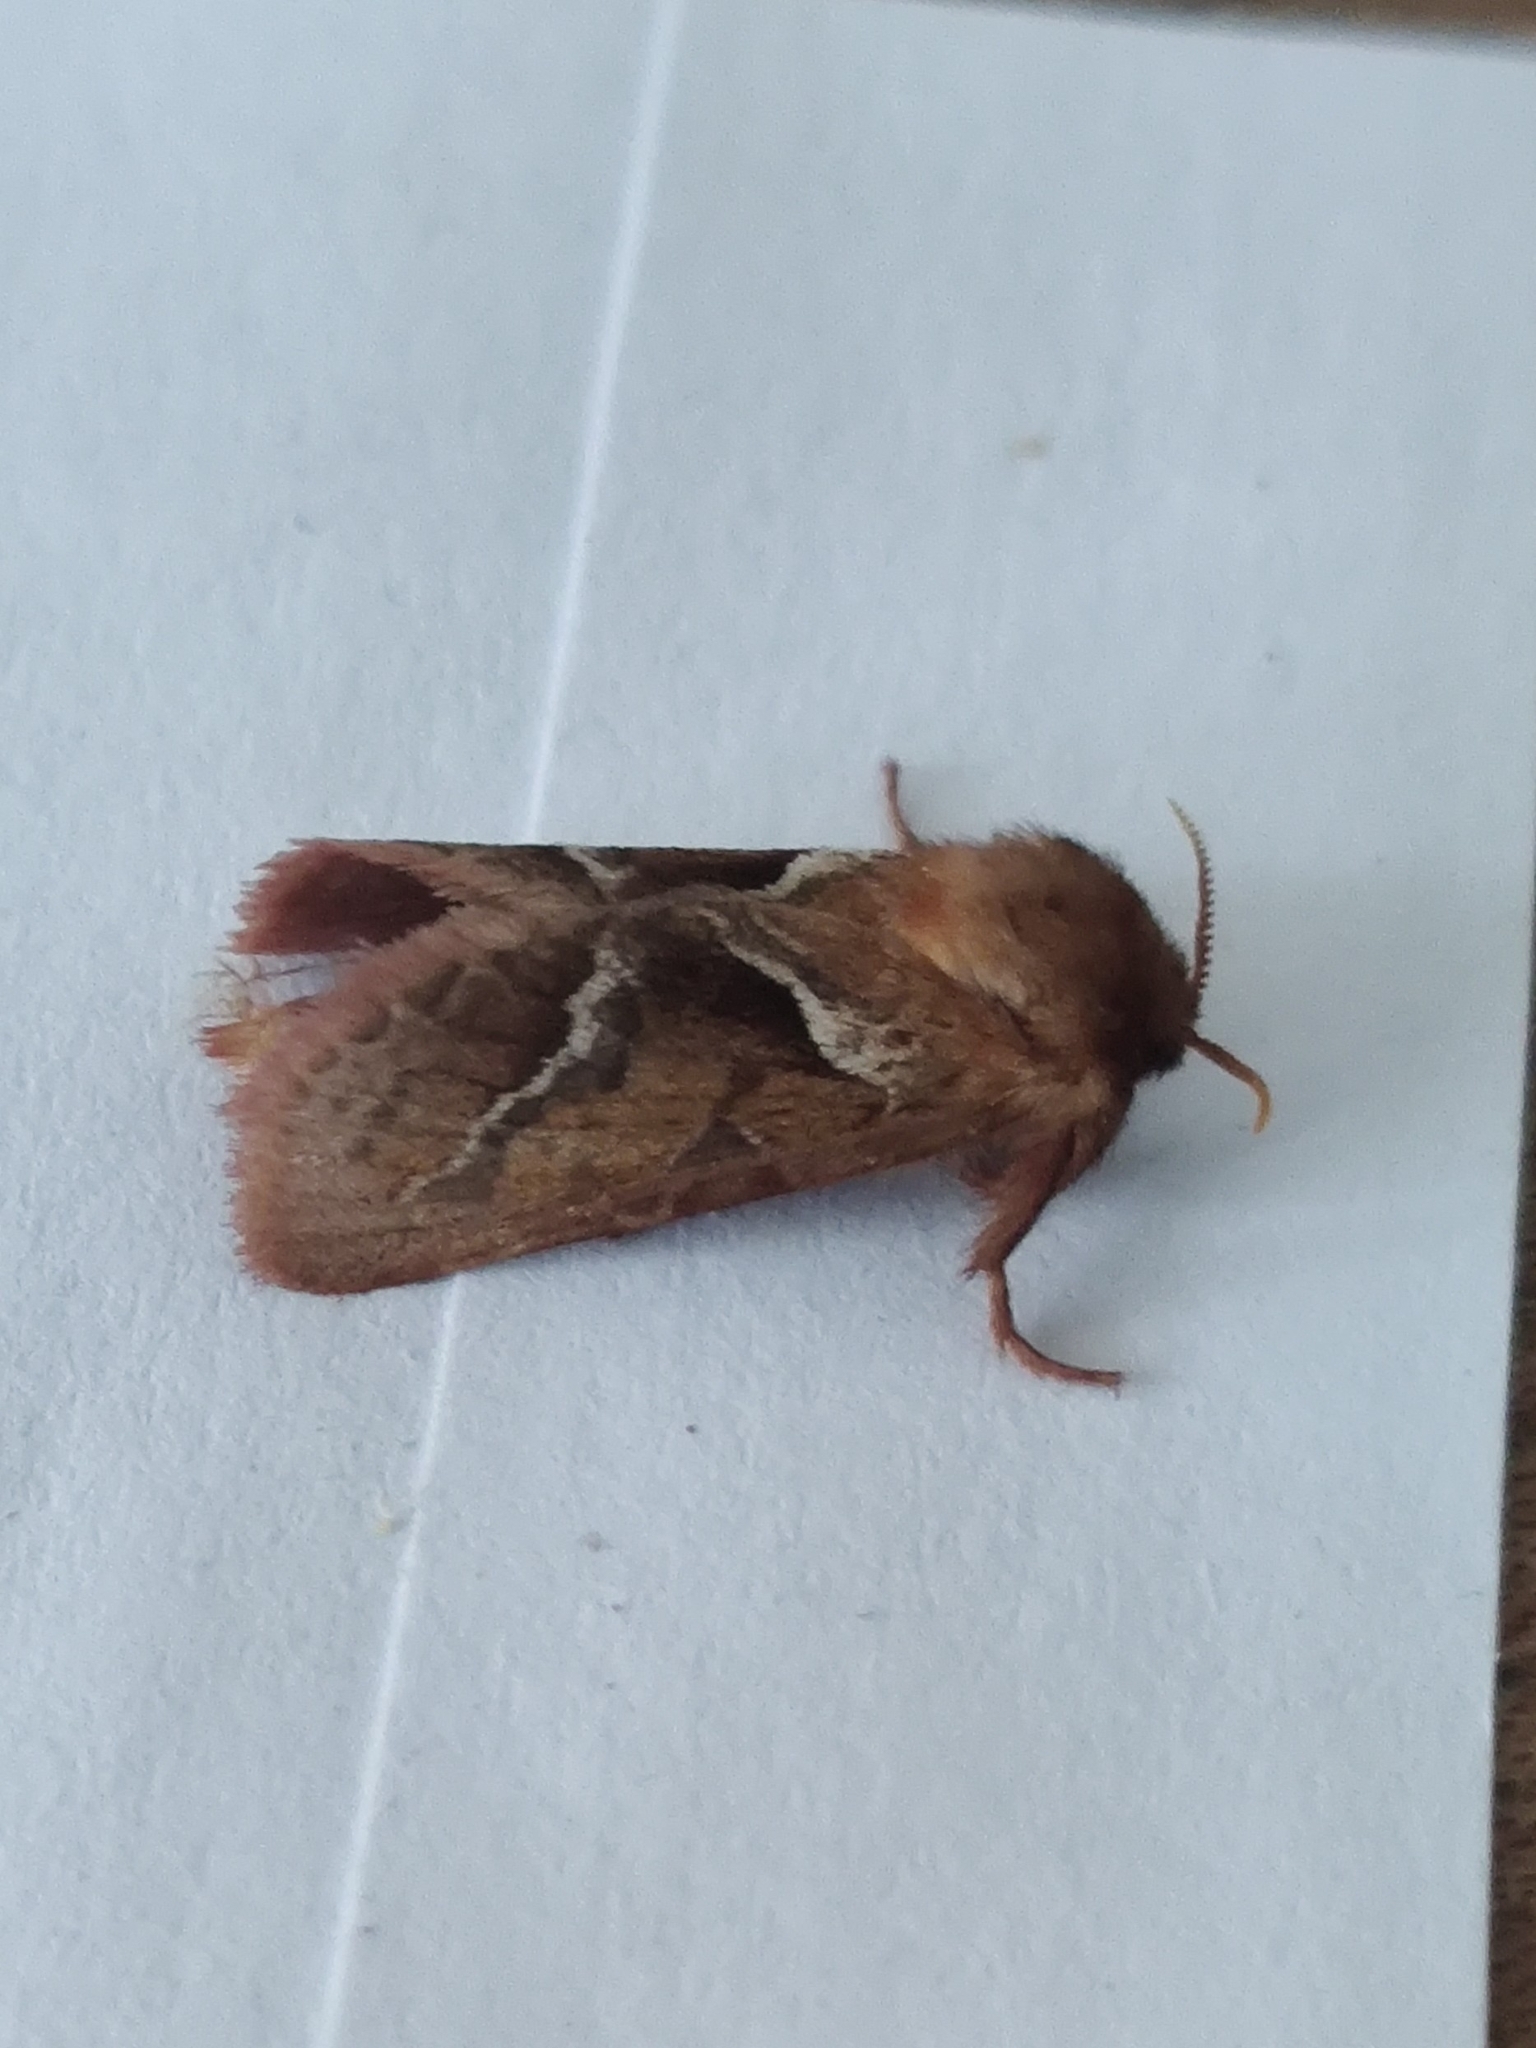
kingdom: Animalia
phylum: Arthropoda
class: Insecta
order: Lepidoptera
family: Hepialidae
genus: Triodia
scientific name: Triodia sylvina
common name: Orange swift
